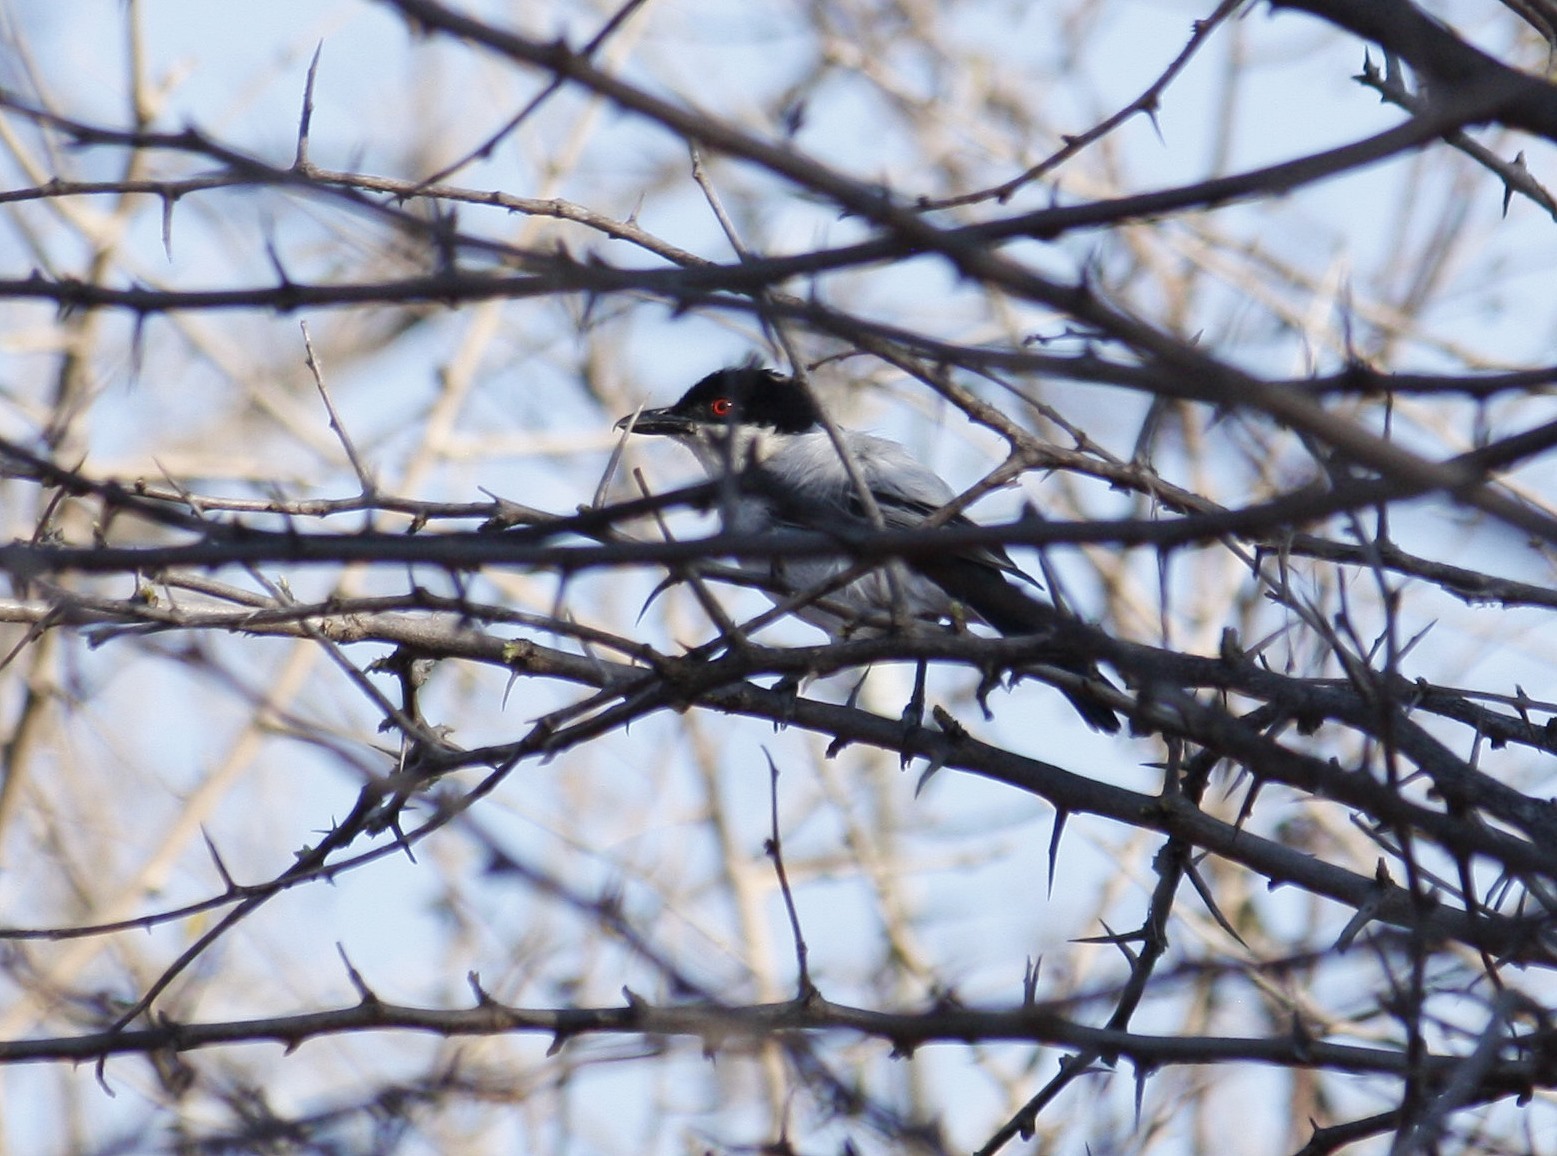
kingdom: Animalia
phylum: Chordata
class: Aves
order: Passeriformes
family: Malaconotidae
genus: Dryoscopus
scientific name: Dryoscopus cubla
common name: Black-backed puffback
